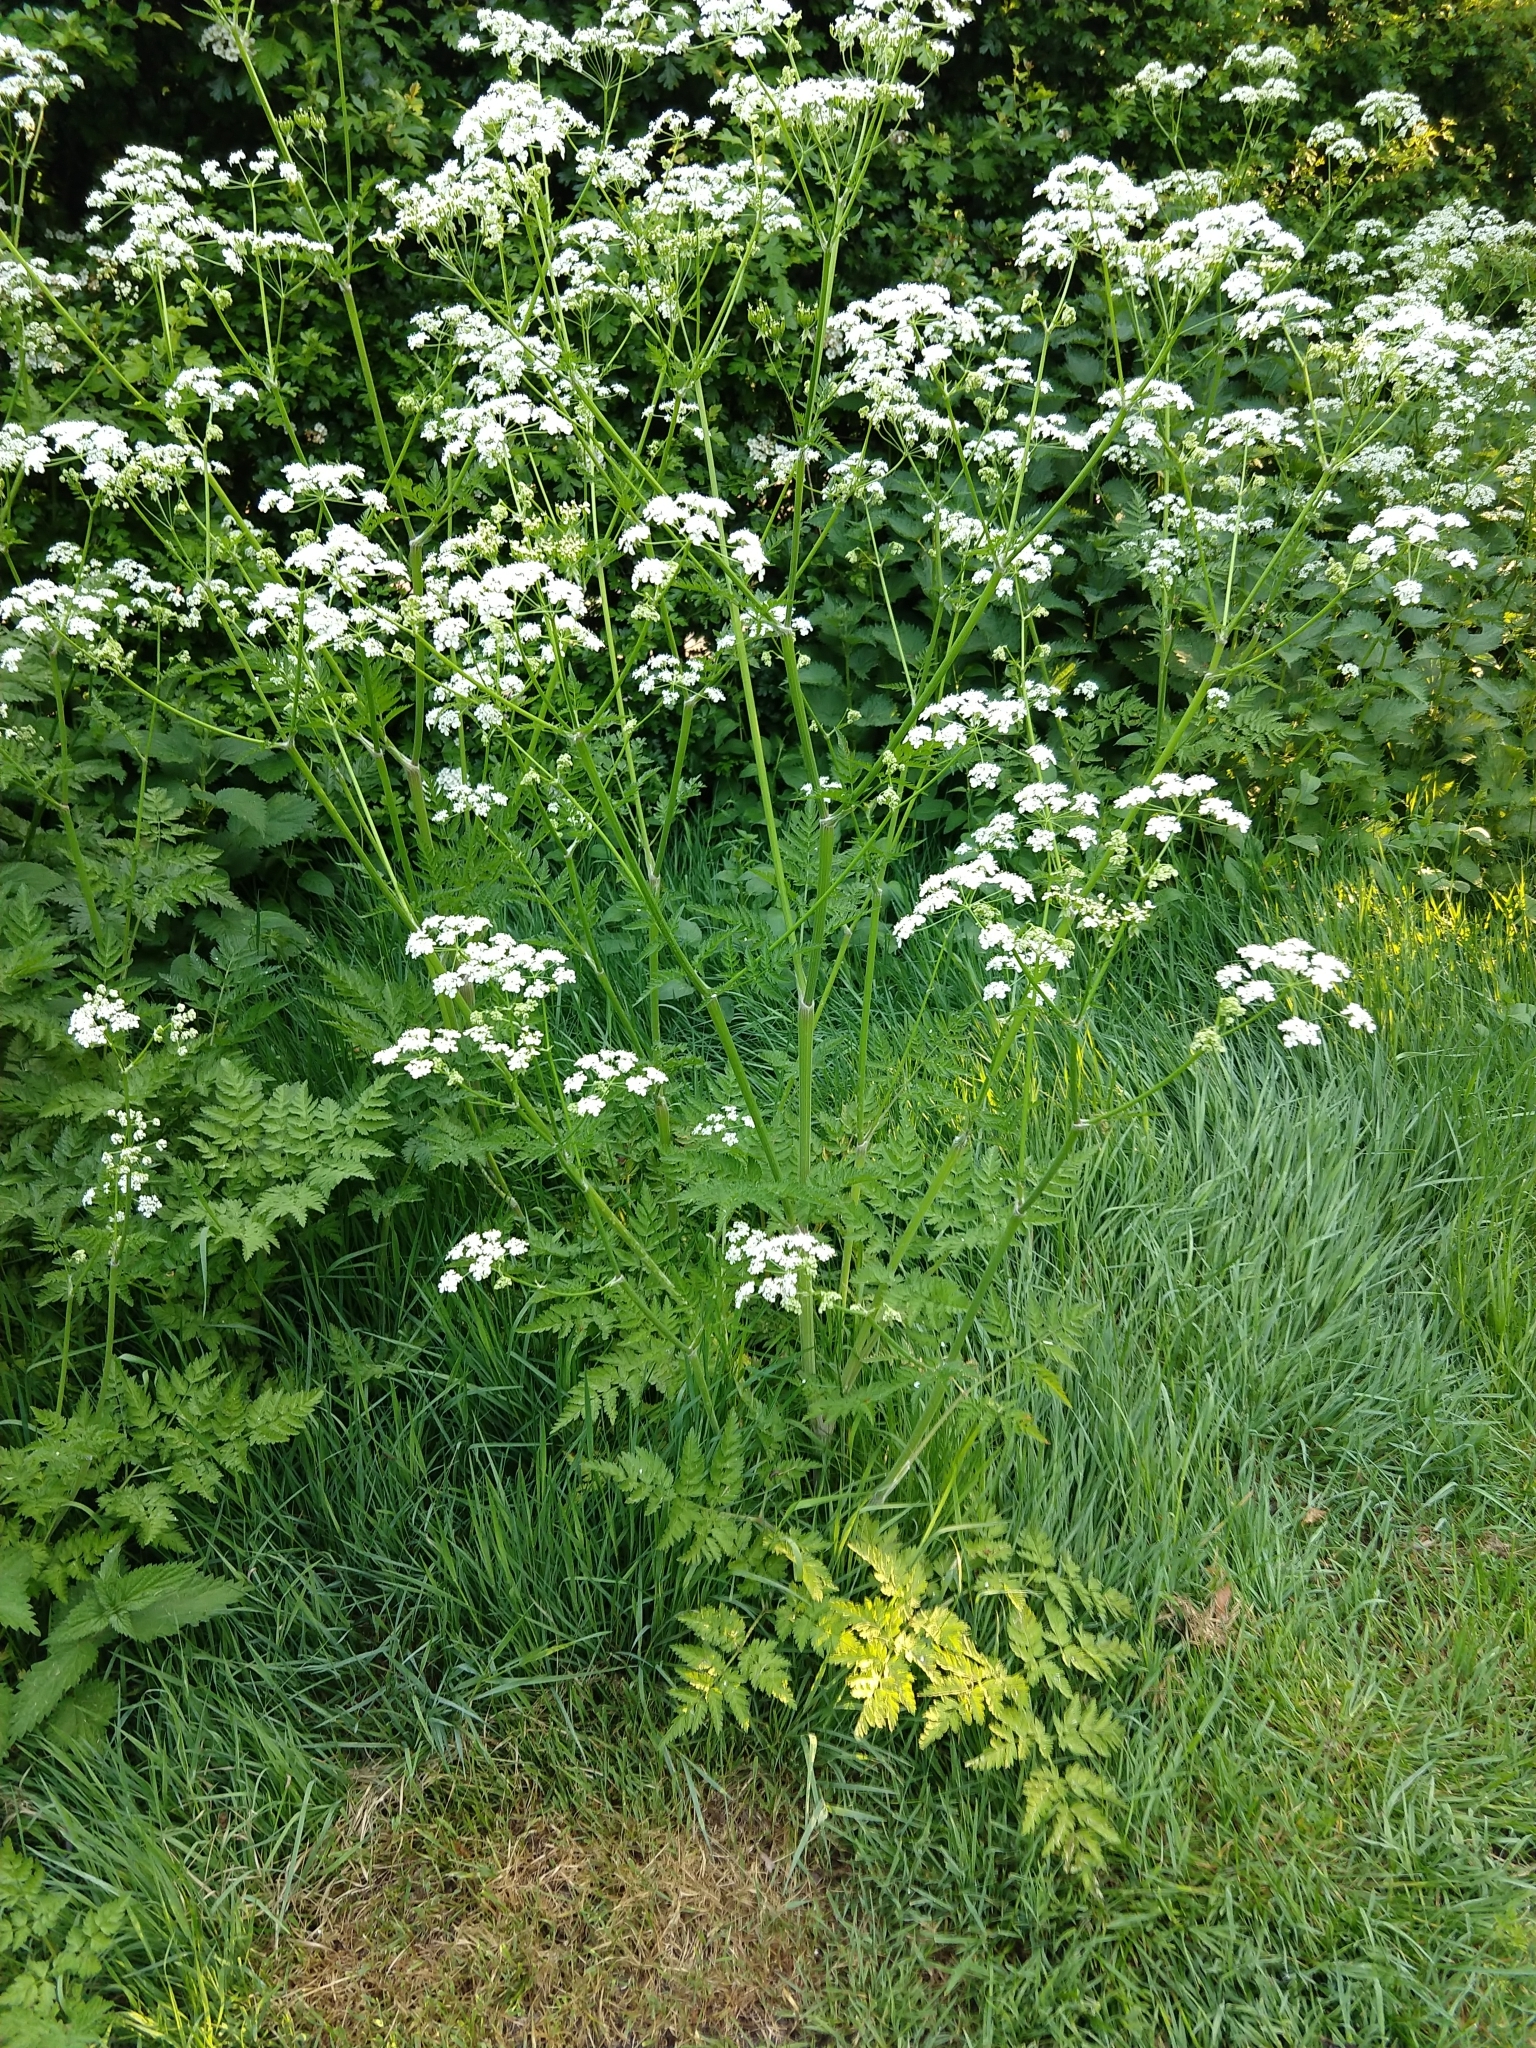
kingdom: Plantae
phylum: Tracheophyta
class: Magnoliopsida
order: Apiales
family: Apiaceae
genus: Anthriscus
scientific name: Anthriscus sylvestris
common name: Cow parsley
